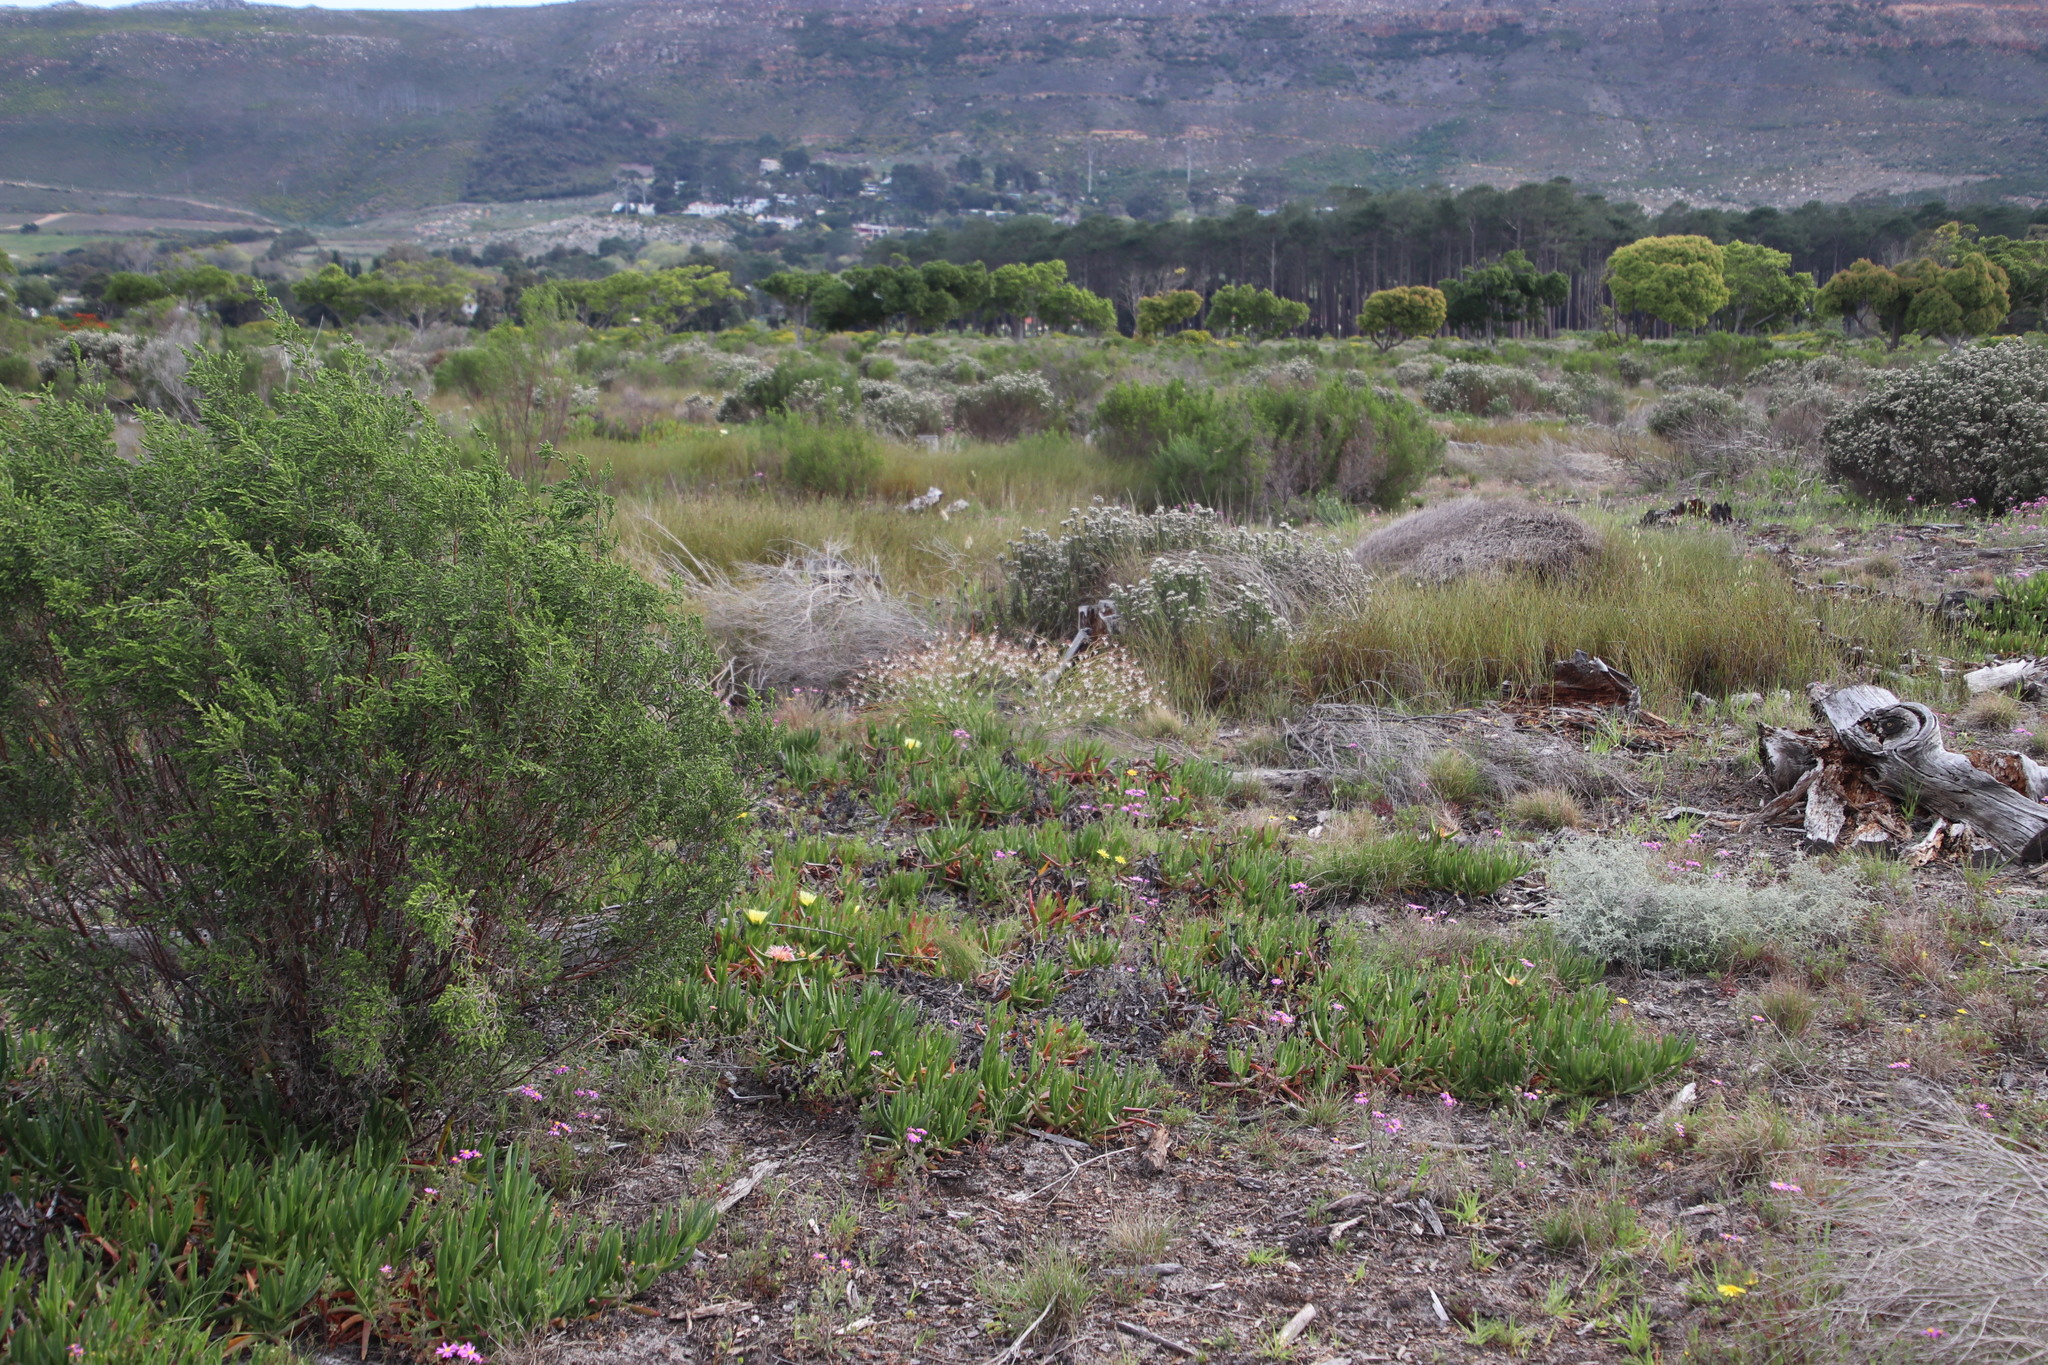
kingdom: Plantae
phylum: Tracheophyta
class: Liliopsida
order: Asparagales
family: Asphodelaceae
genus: Trachyandra
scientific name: Trachyandra divaricata
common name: Dune onionweed
